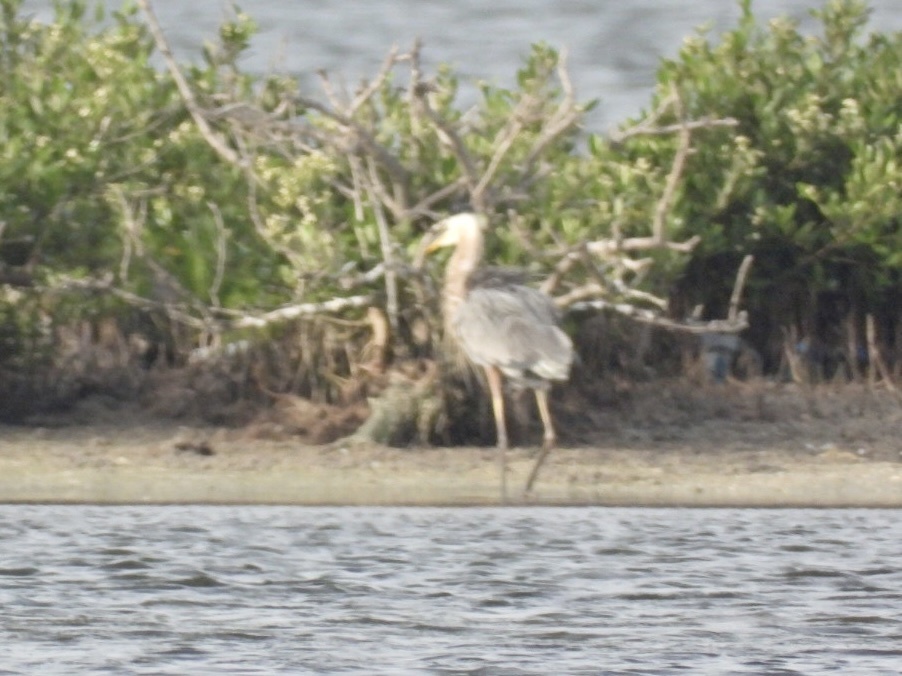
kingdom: Animalia
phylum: Chordata
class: Aves
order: Pelecaniformes
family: Ardeidae
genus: Ardea
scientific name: Ardea herodias
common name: Great blue heron
